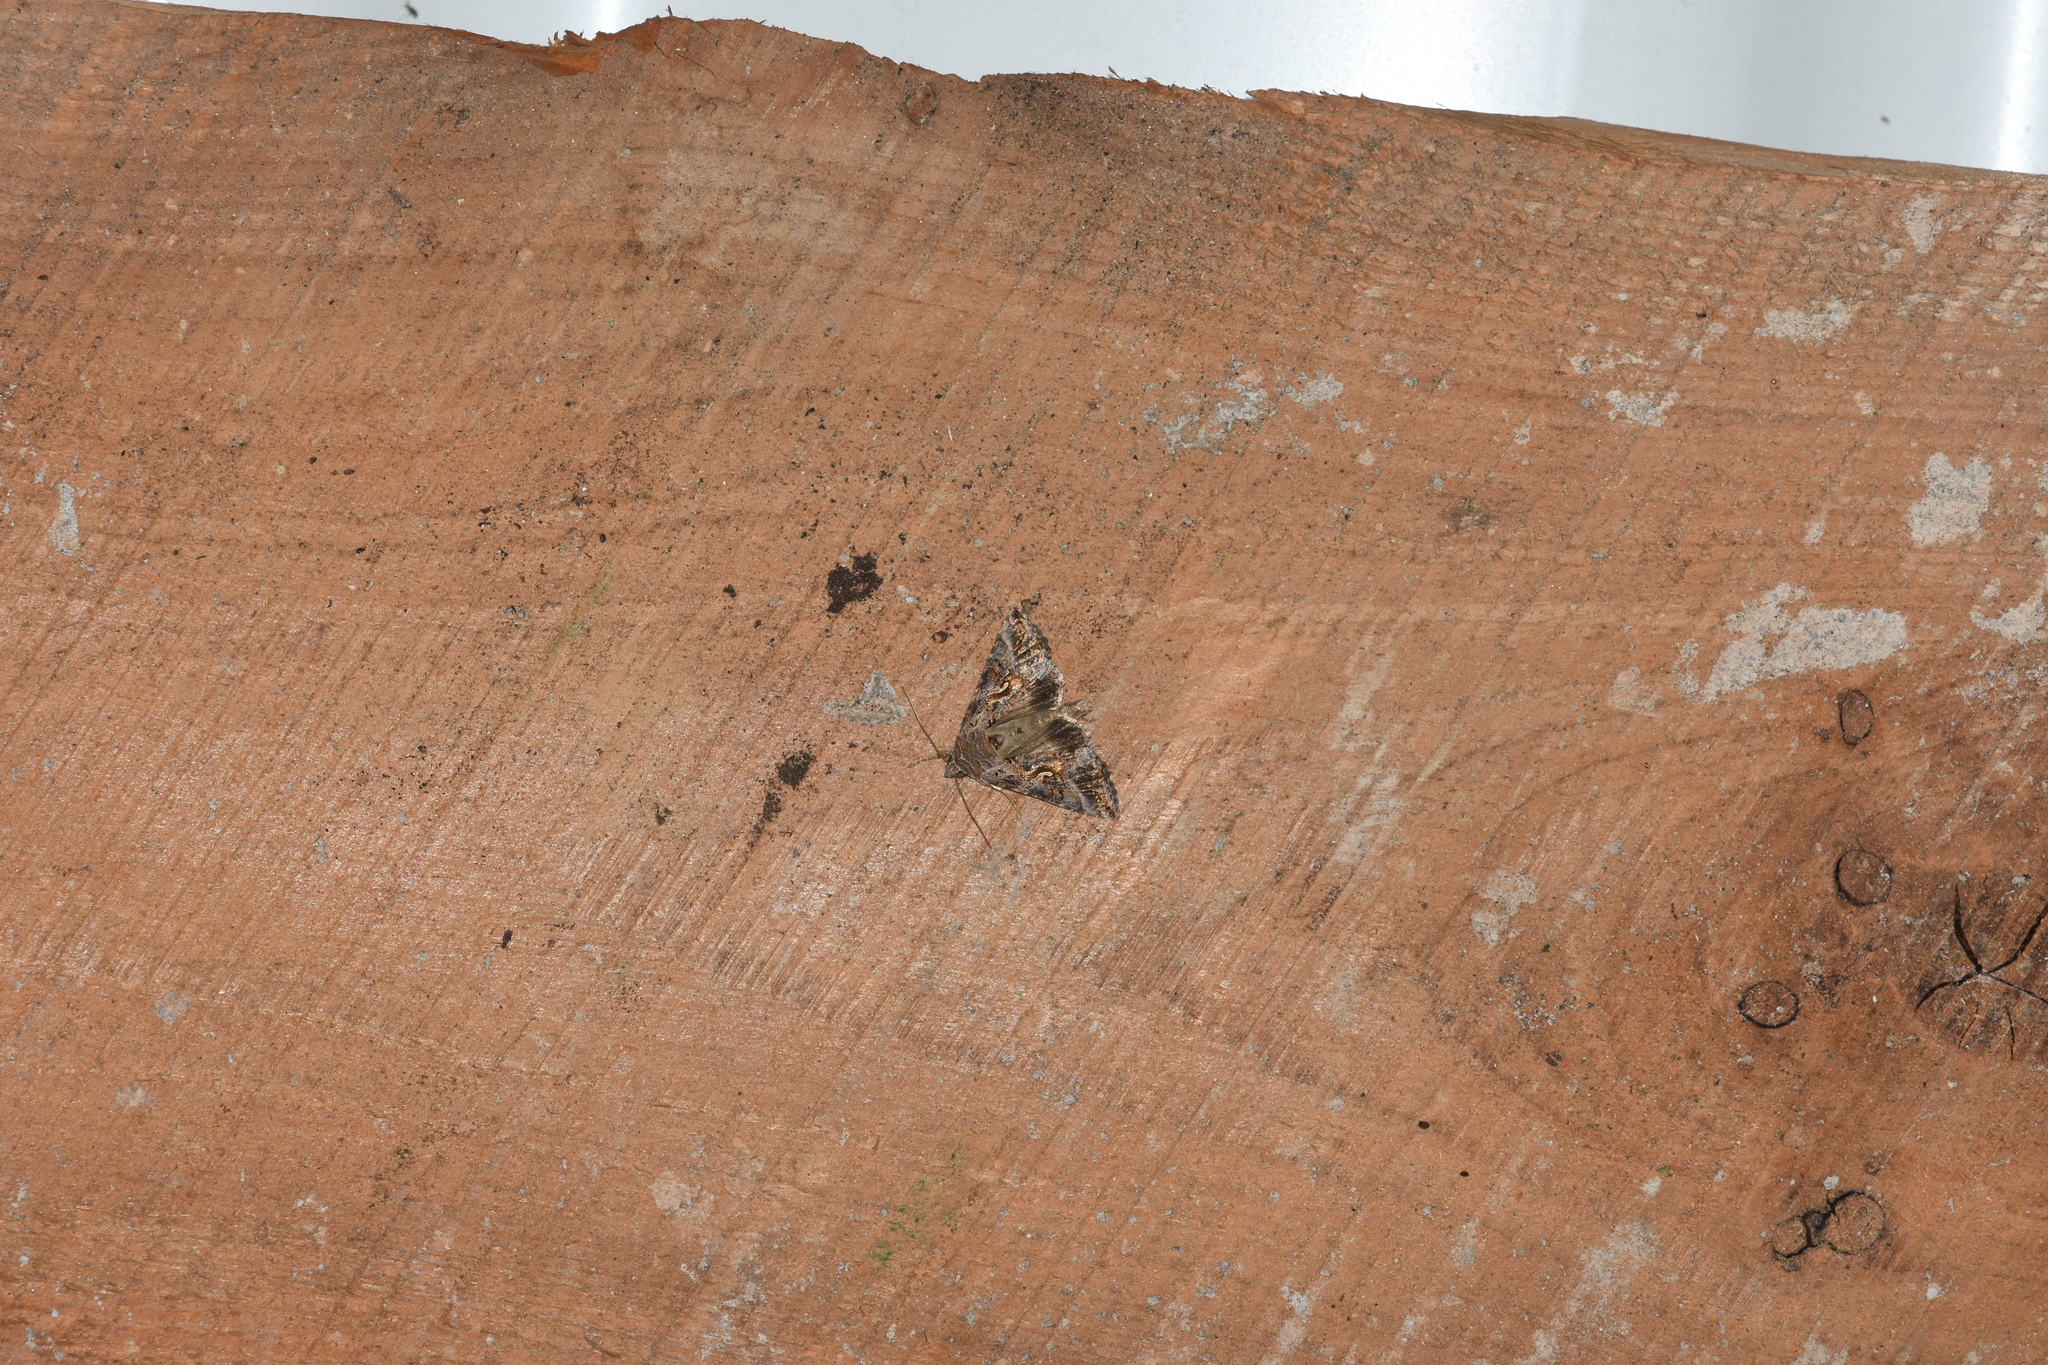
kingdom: Animalia
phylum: Arthropoda
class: Insecta
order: Lepidoptera
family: Noctuidae
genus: Autographa
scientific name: Autographa gamma
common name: Silver y
